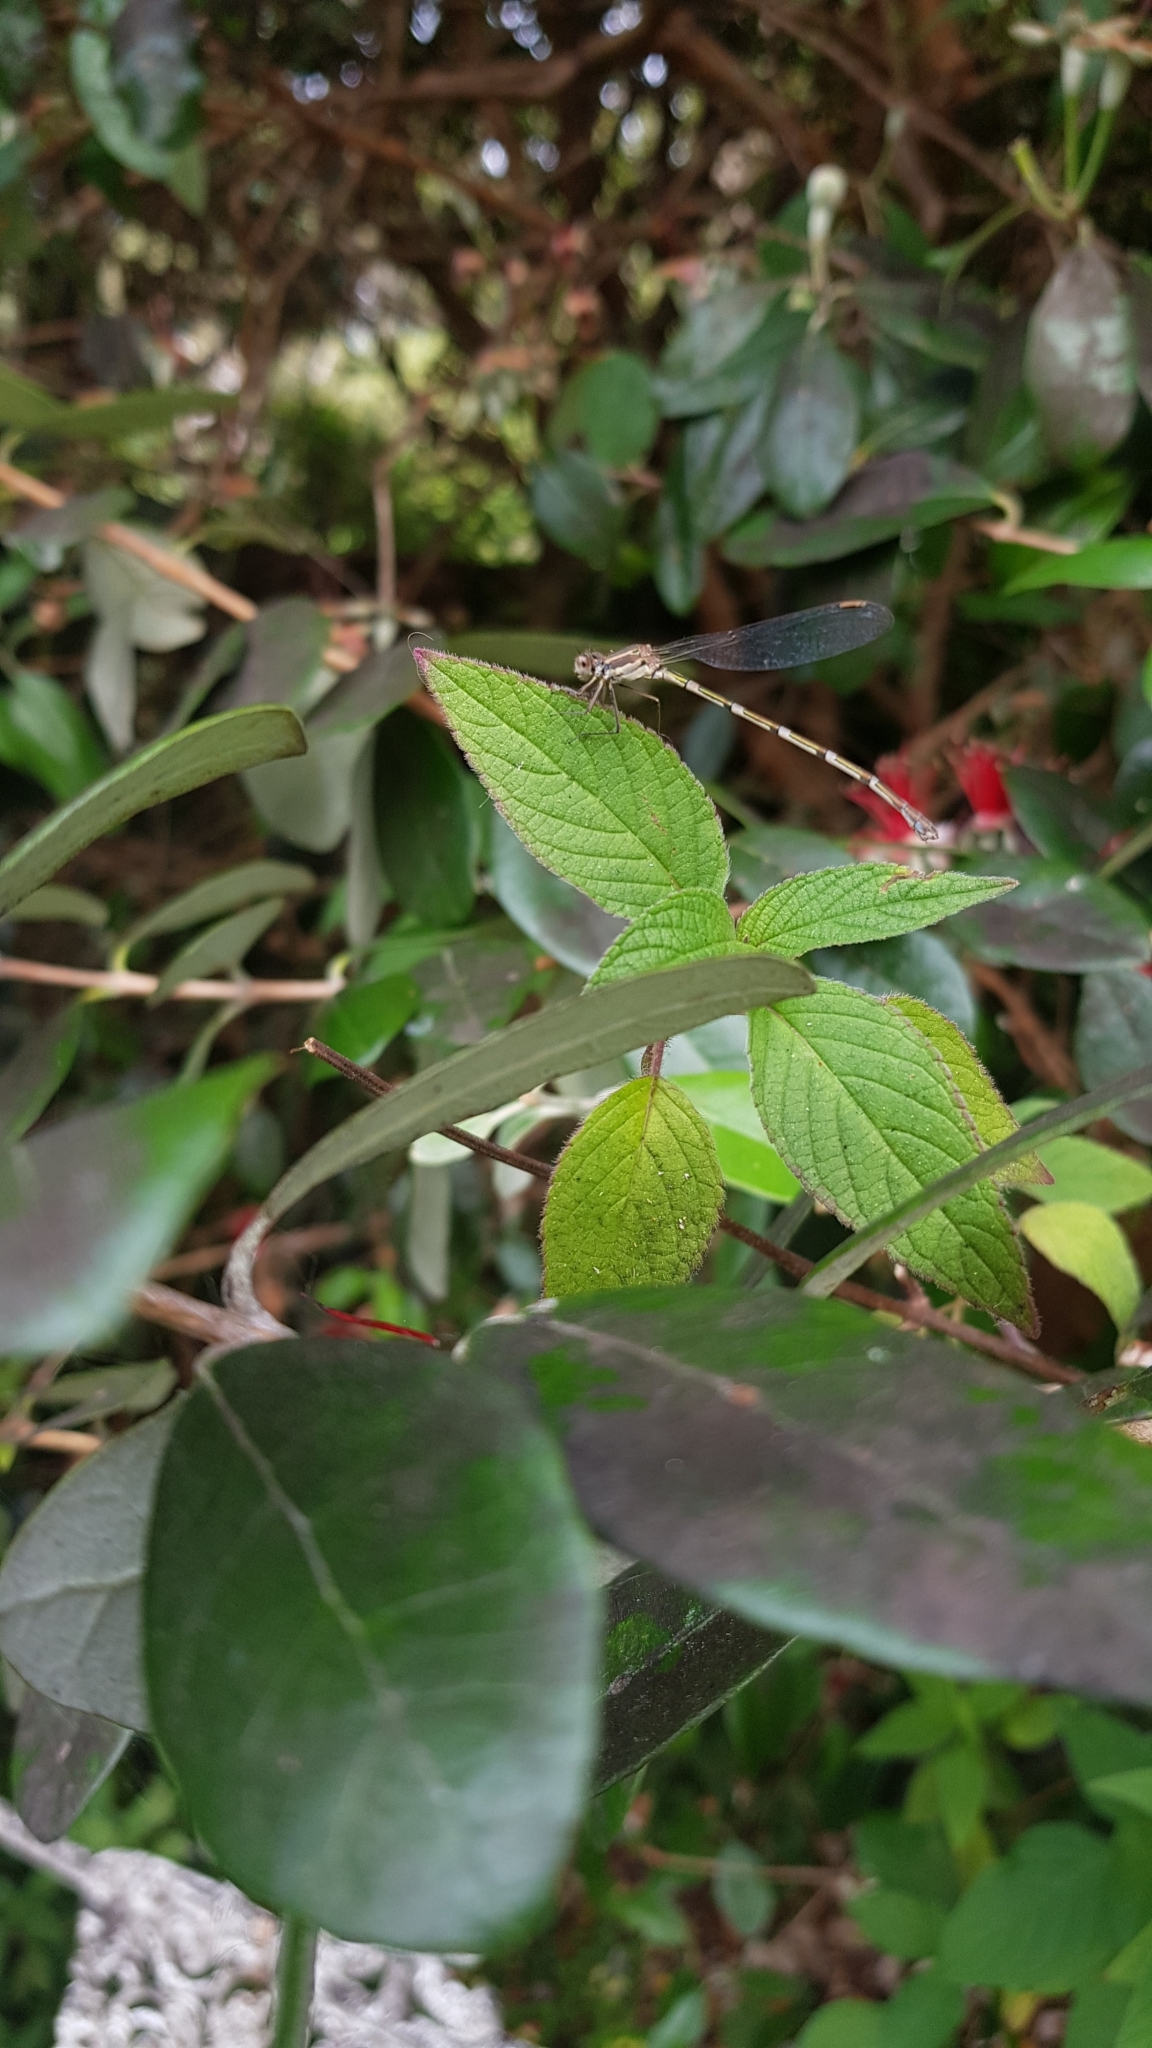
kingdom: Animalia
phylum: Arthropoda
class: Insecta
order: Odonata
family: Lestidae
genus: Austrolestes
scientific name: Austrolestes leda
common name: Wandering ringtail
